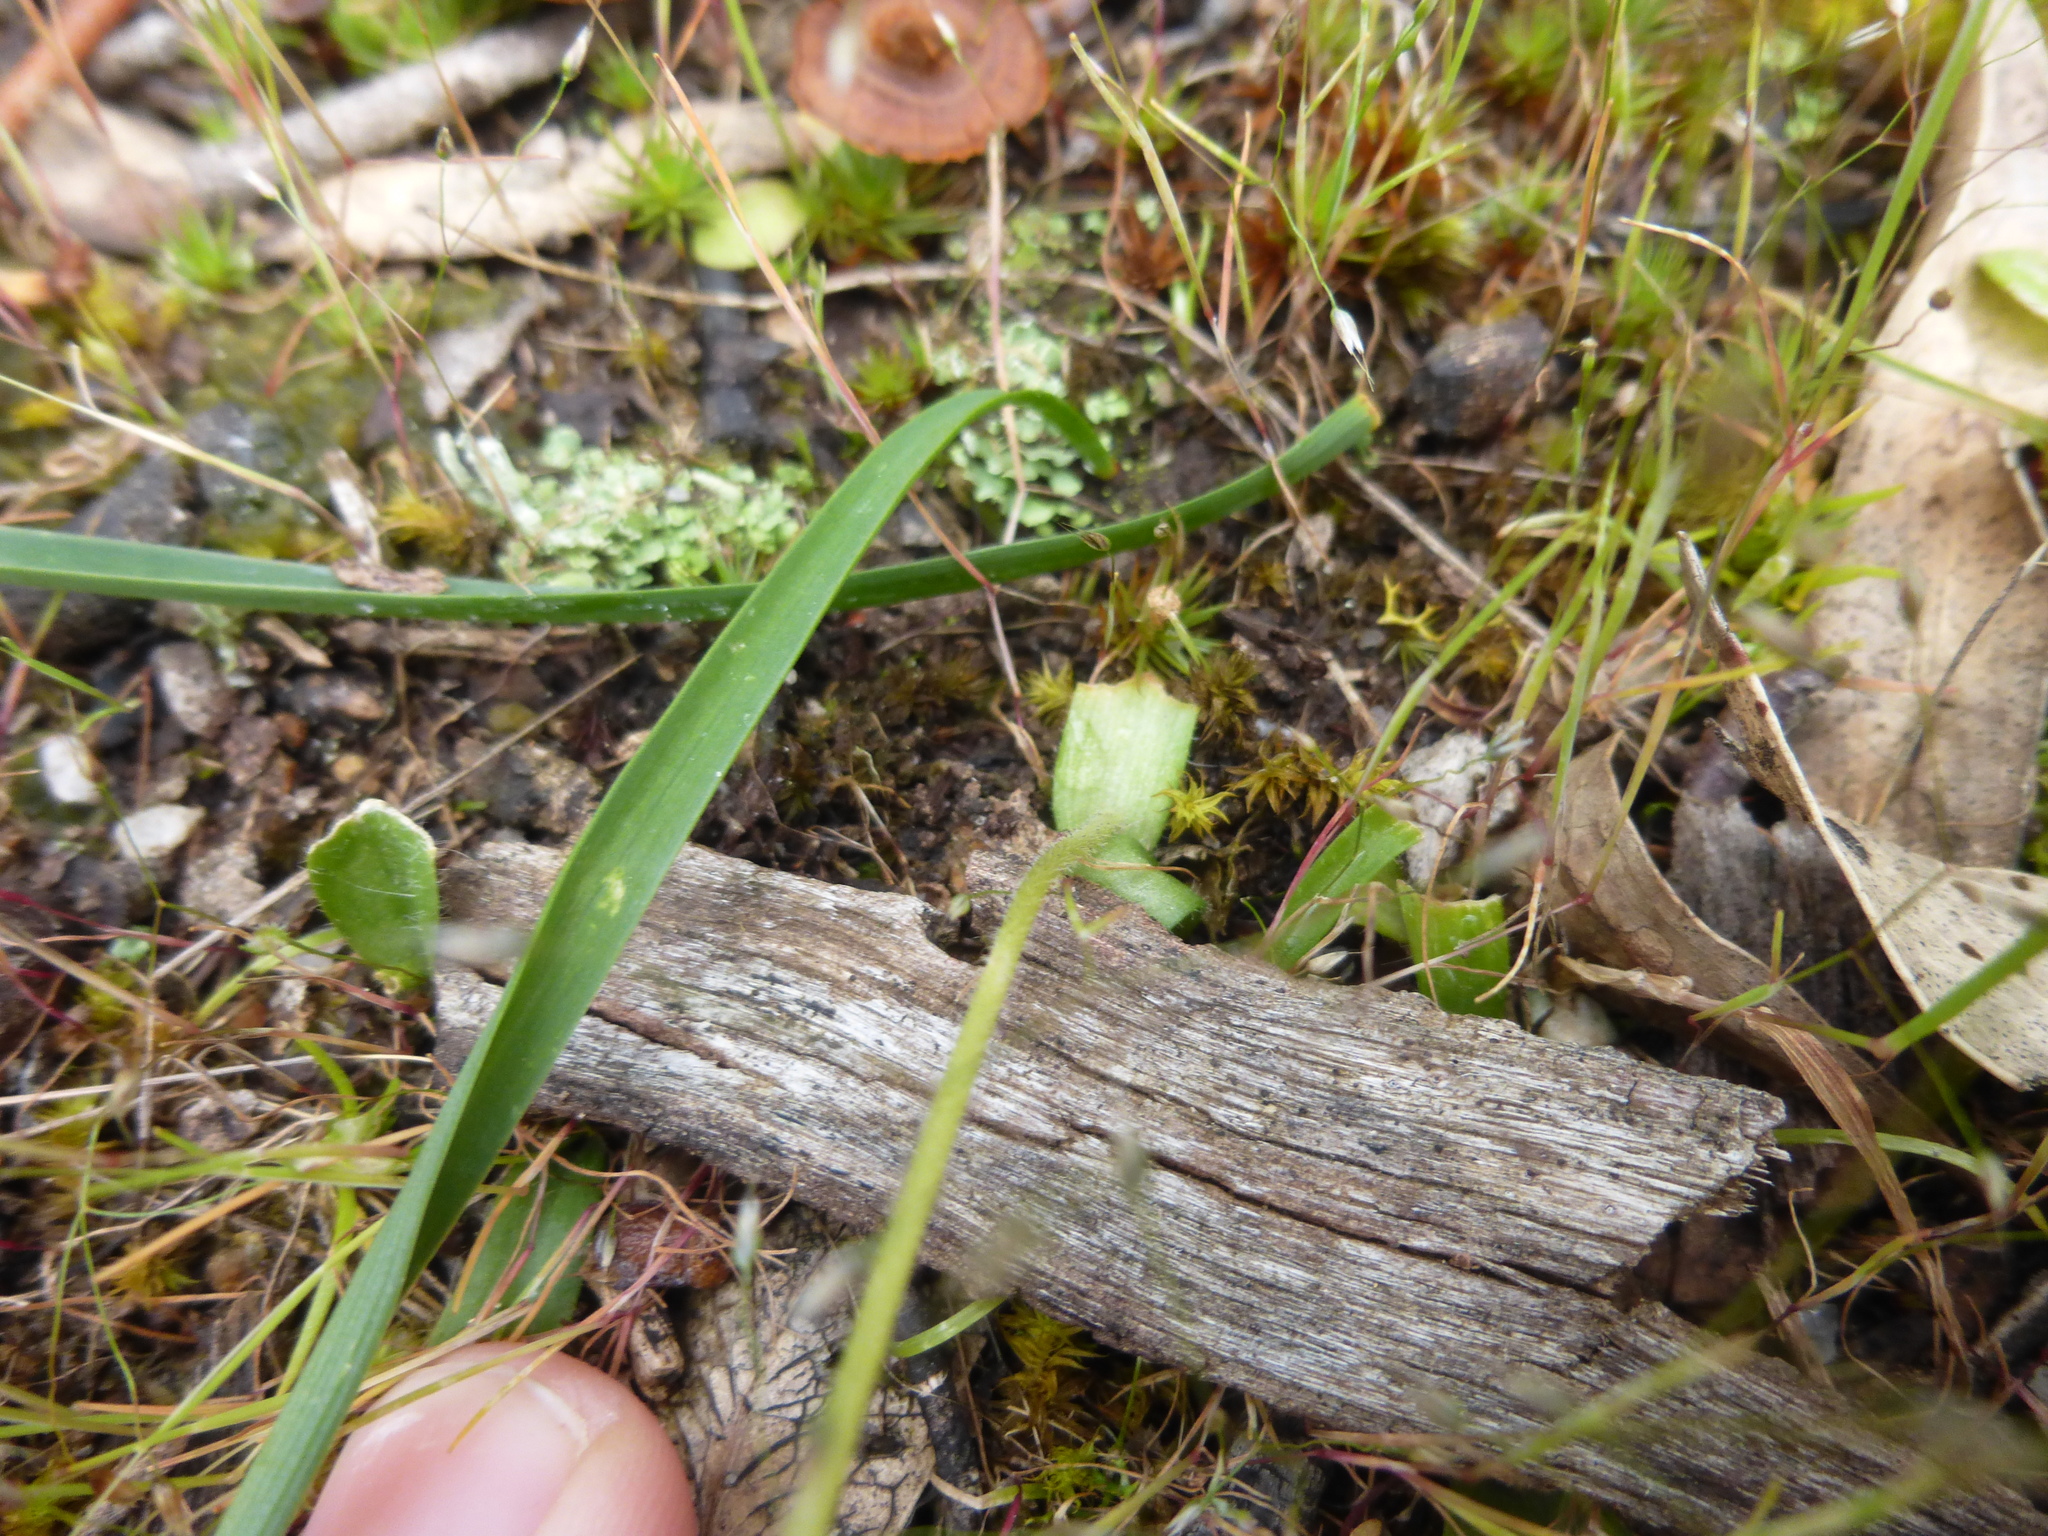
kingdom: Plantae
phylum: Tracheophyta
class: Liliopsida
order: Asparagales
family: Orchidaceae
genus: Caladenia
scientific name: Caladenia major
